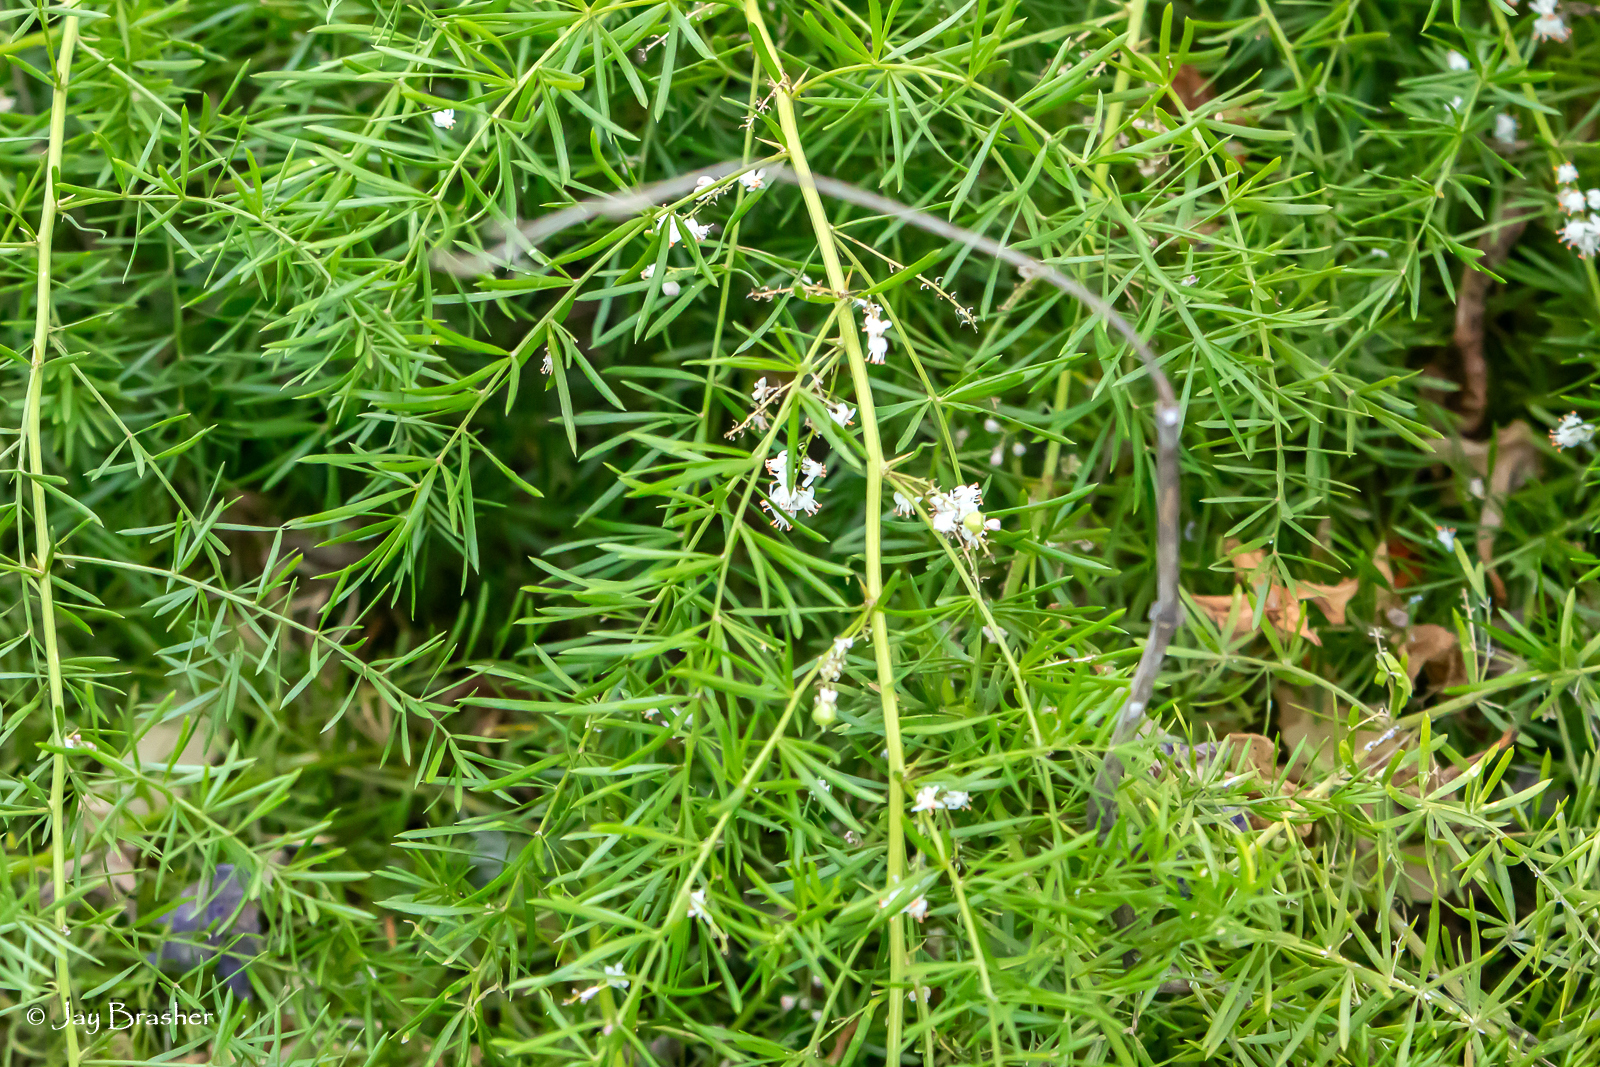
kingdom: Plantae
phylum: Tracheophyta
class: Liliopsida
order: Asparagales
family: Asparagaceae
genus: Asparagus
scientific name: Asparagus aethiopicus
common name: Sprenger's asparagus fern
